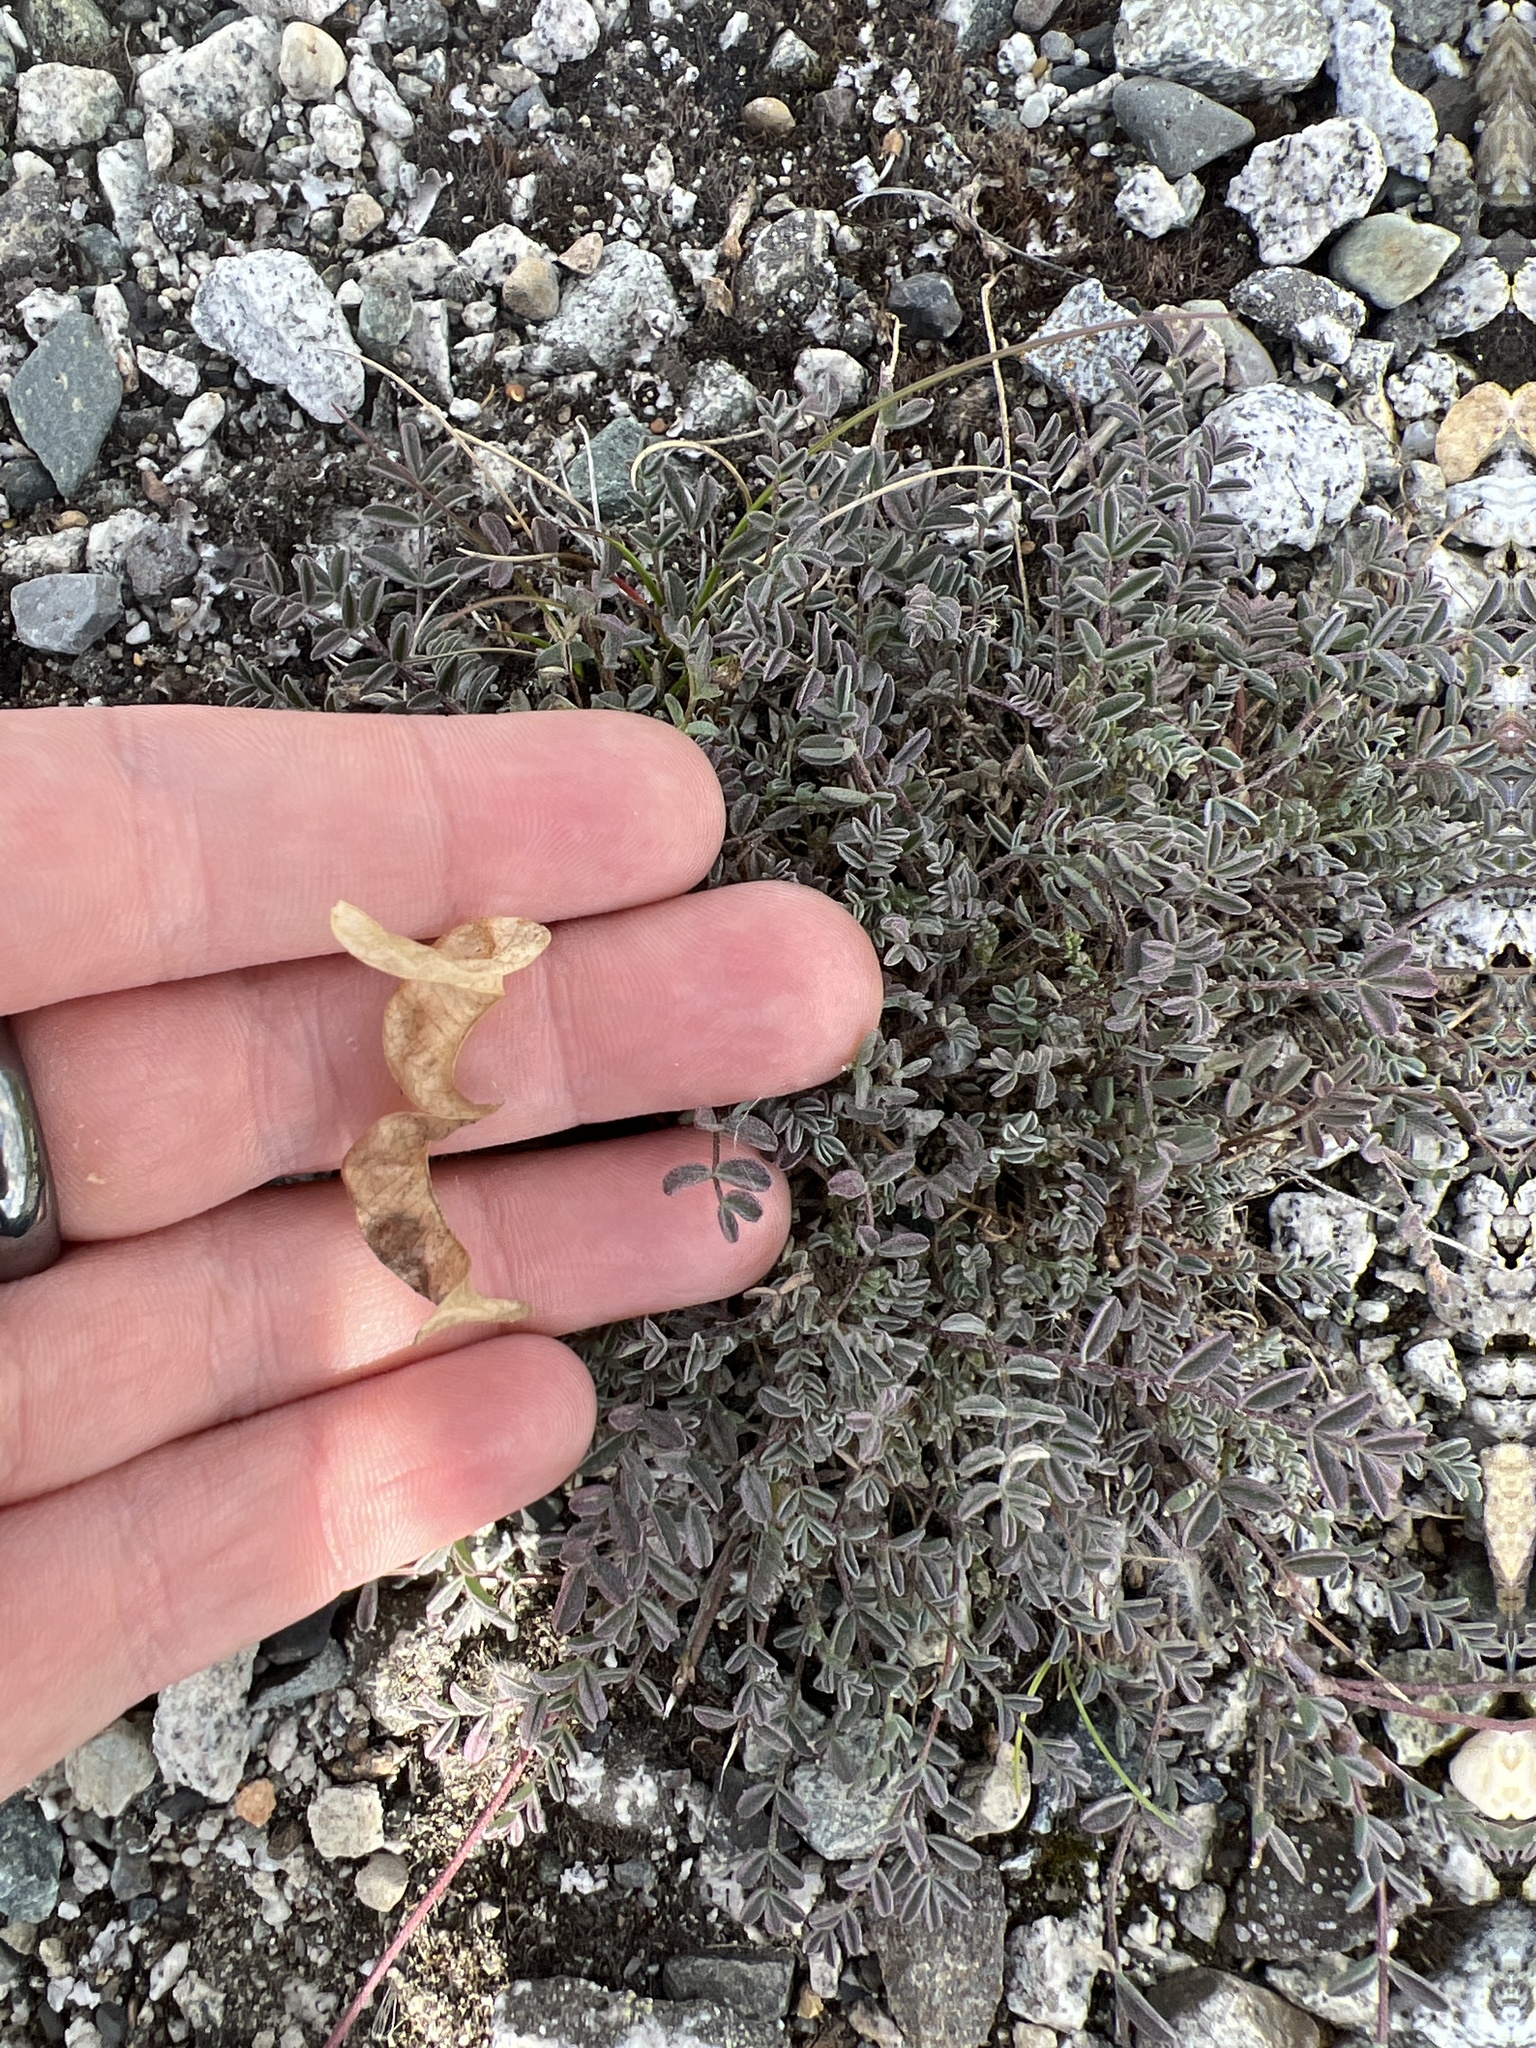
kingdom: Plantae
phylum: Tracheophyta
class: Magnoliopsida
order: Fabales
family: Fabaceae
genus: Astragalus
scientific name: Astragalus nutzotinensis
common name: Nutzotin milk-vetch
